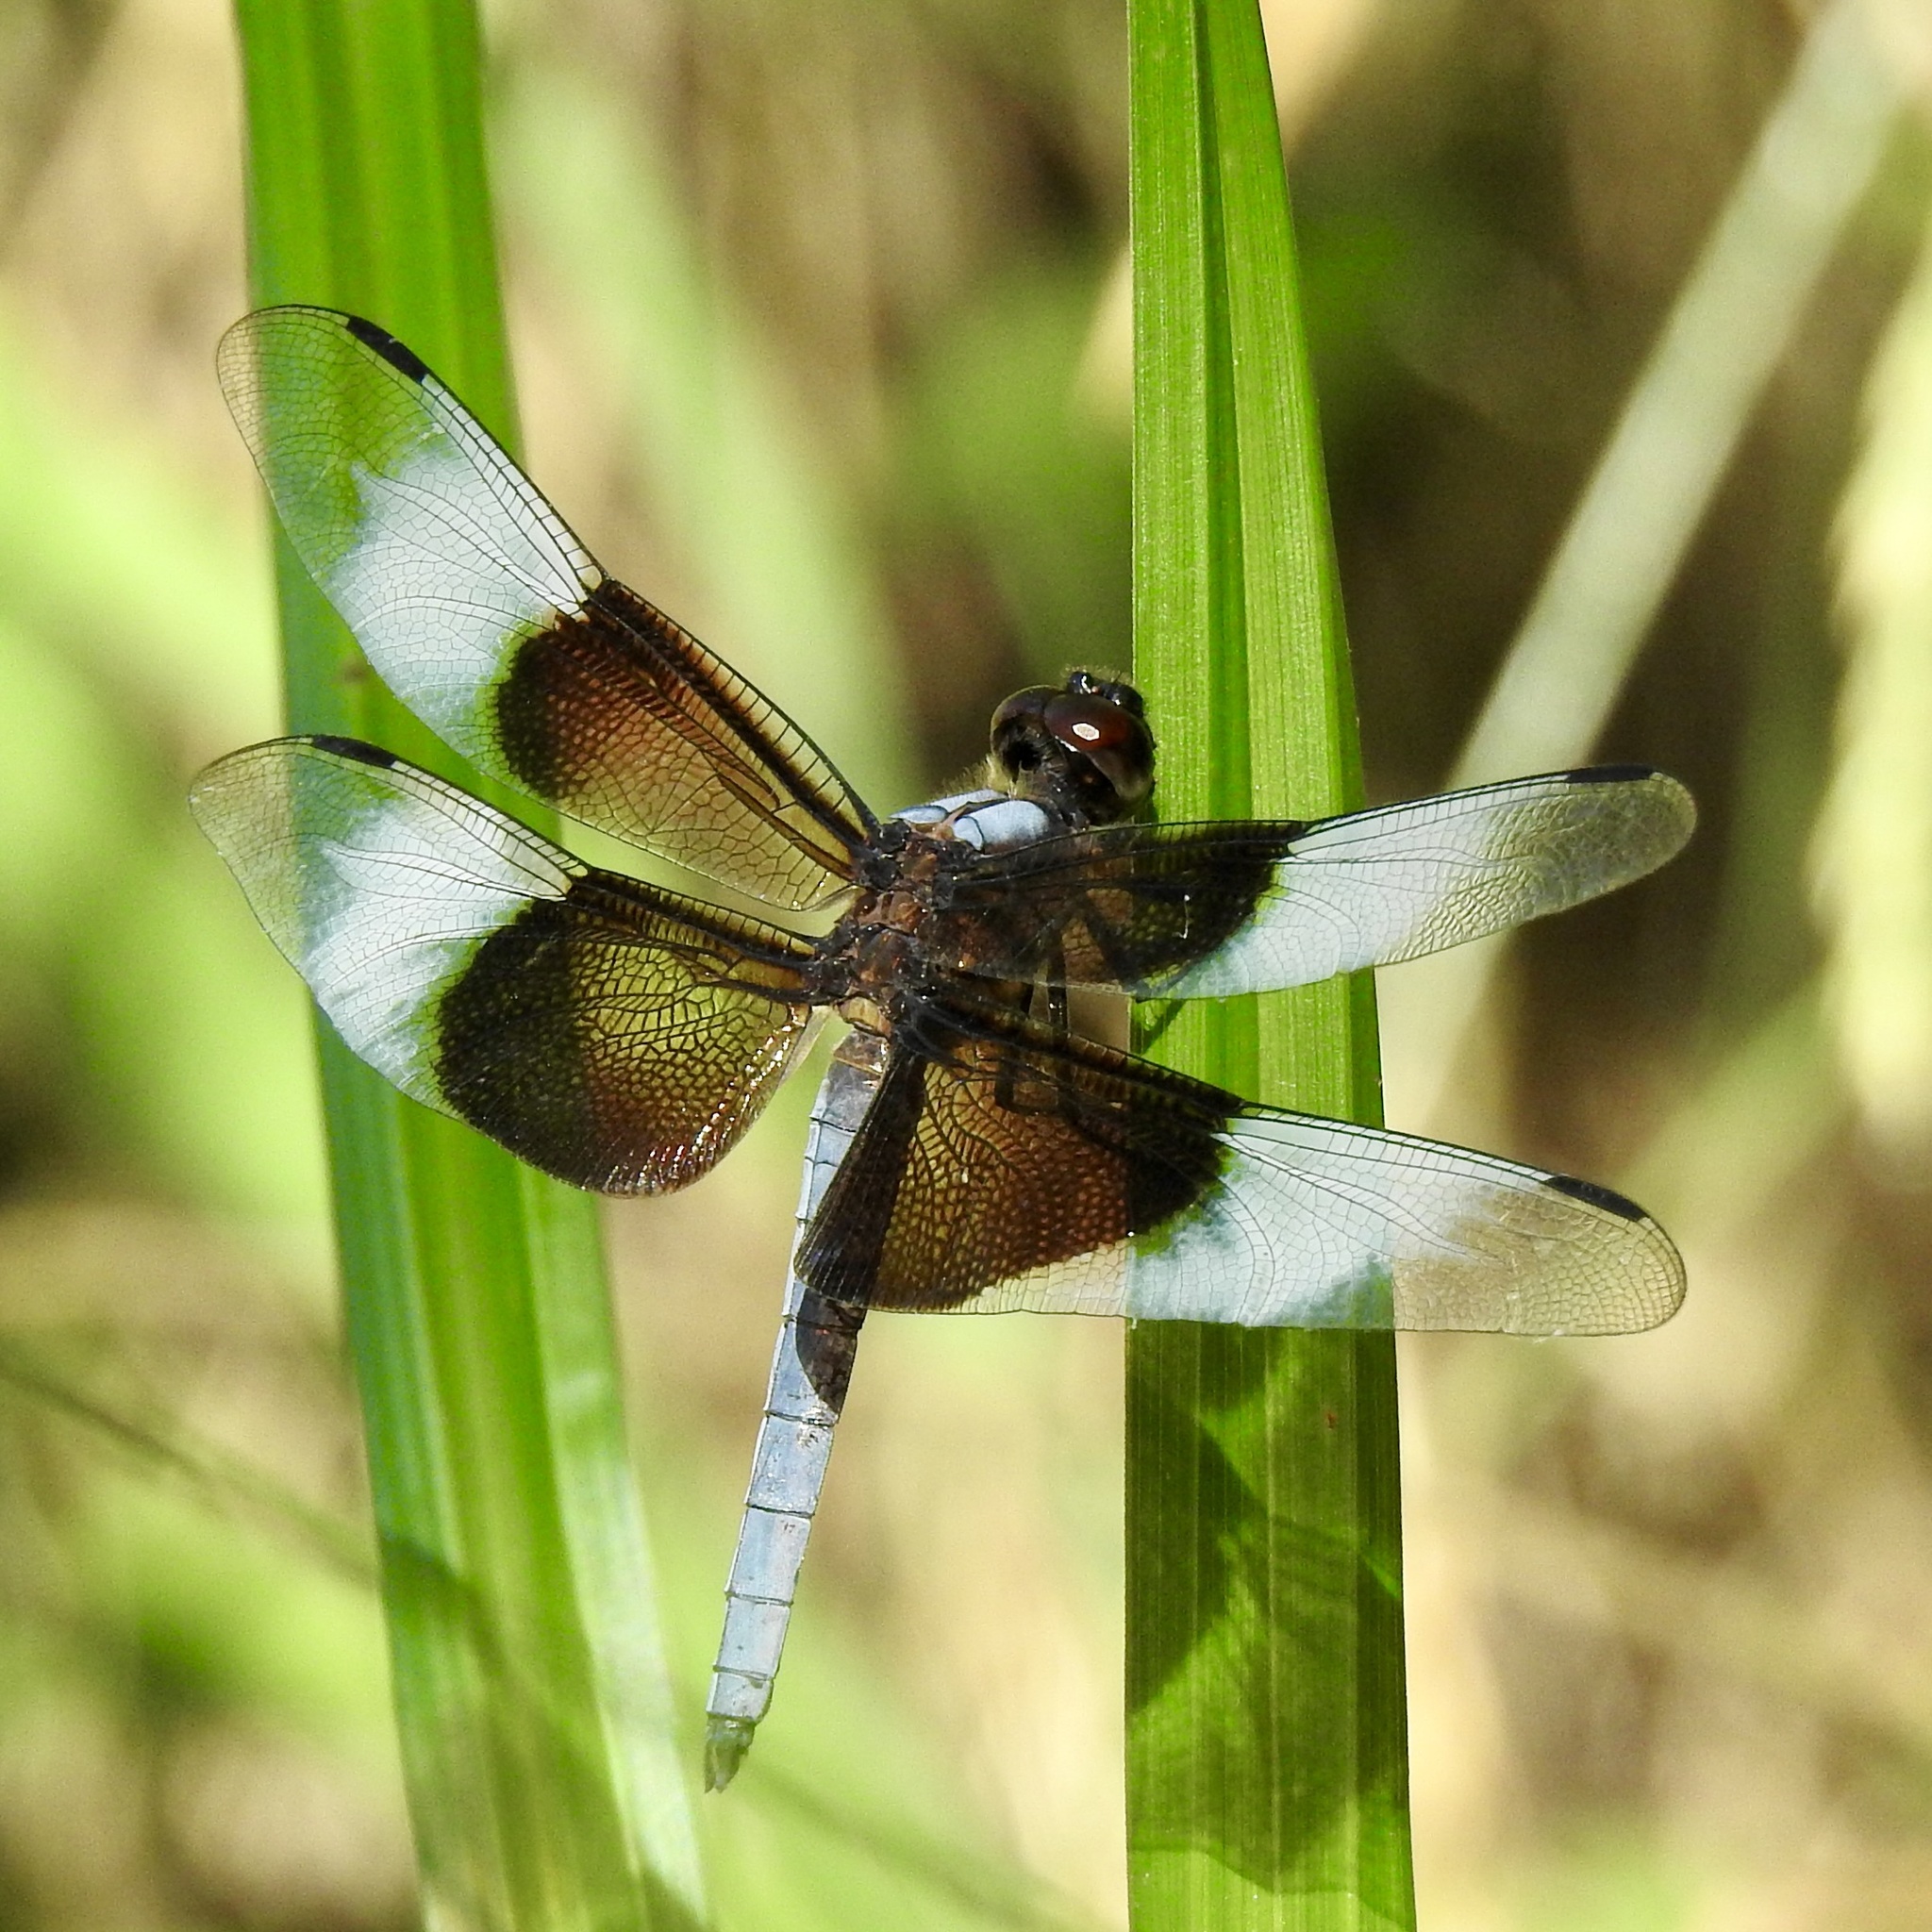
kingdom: Animalia
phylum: Arthropoda
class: Insecta
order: Odonata
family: Libellulidae
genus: Libellula
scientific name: Libellula luctuosa
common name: Widow skimmer
